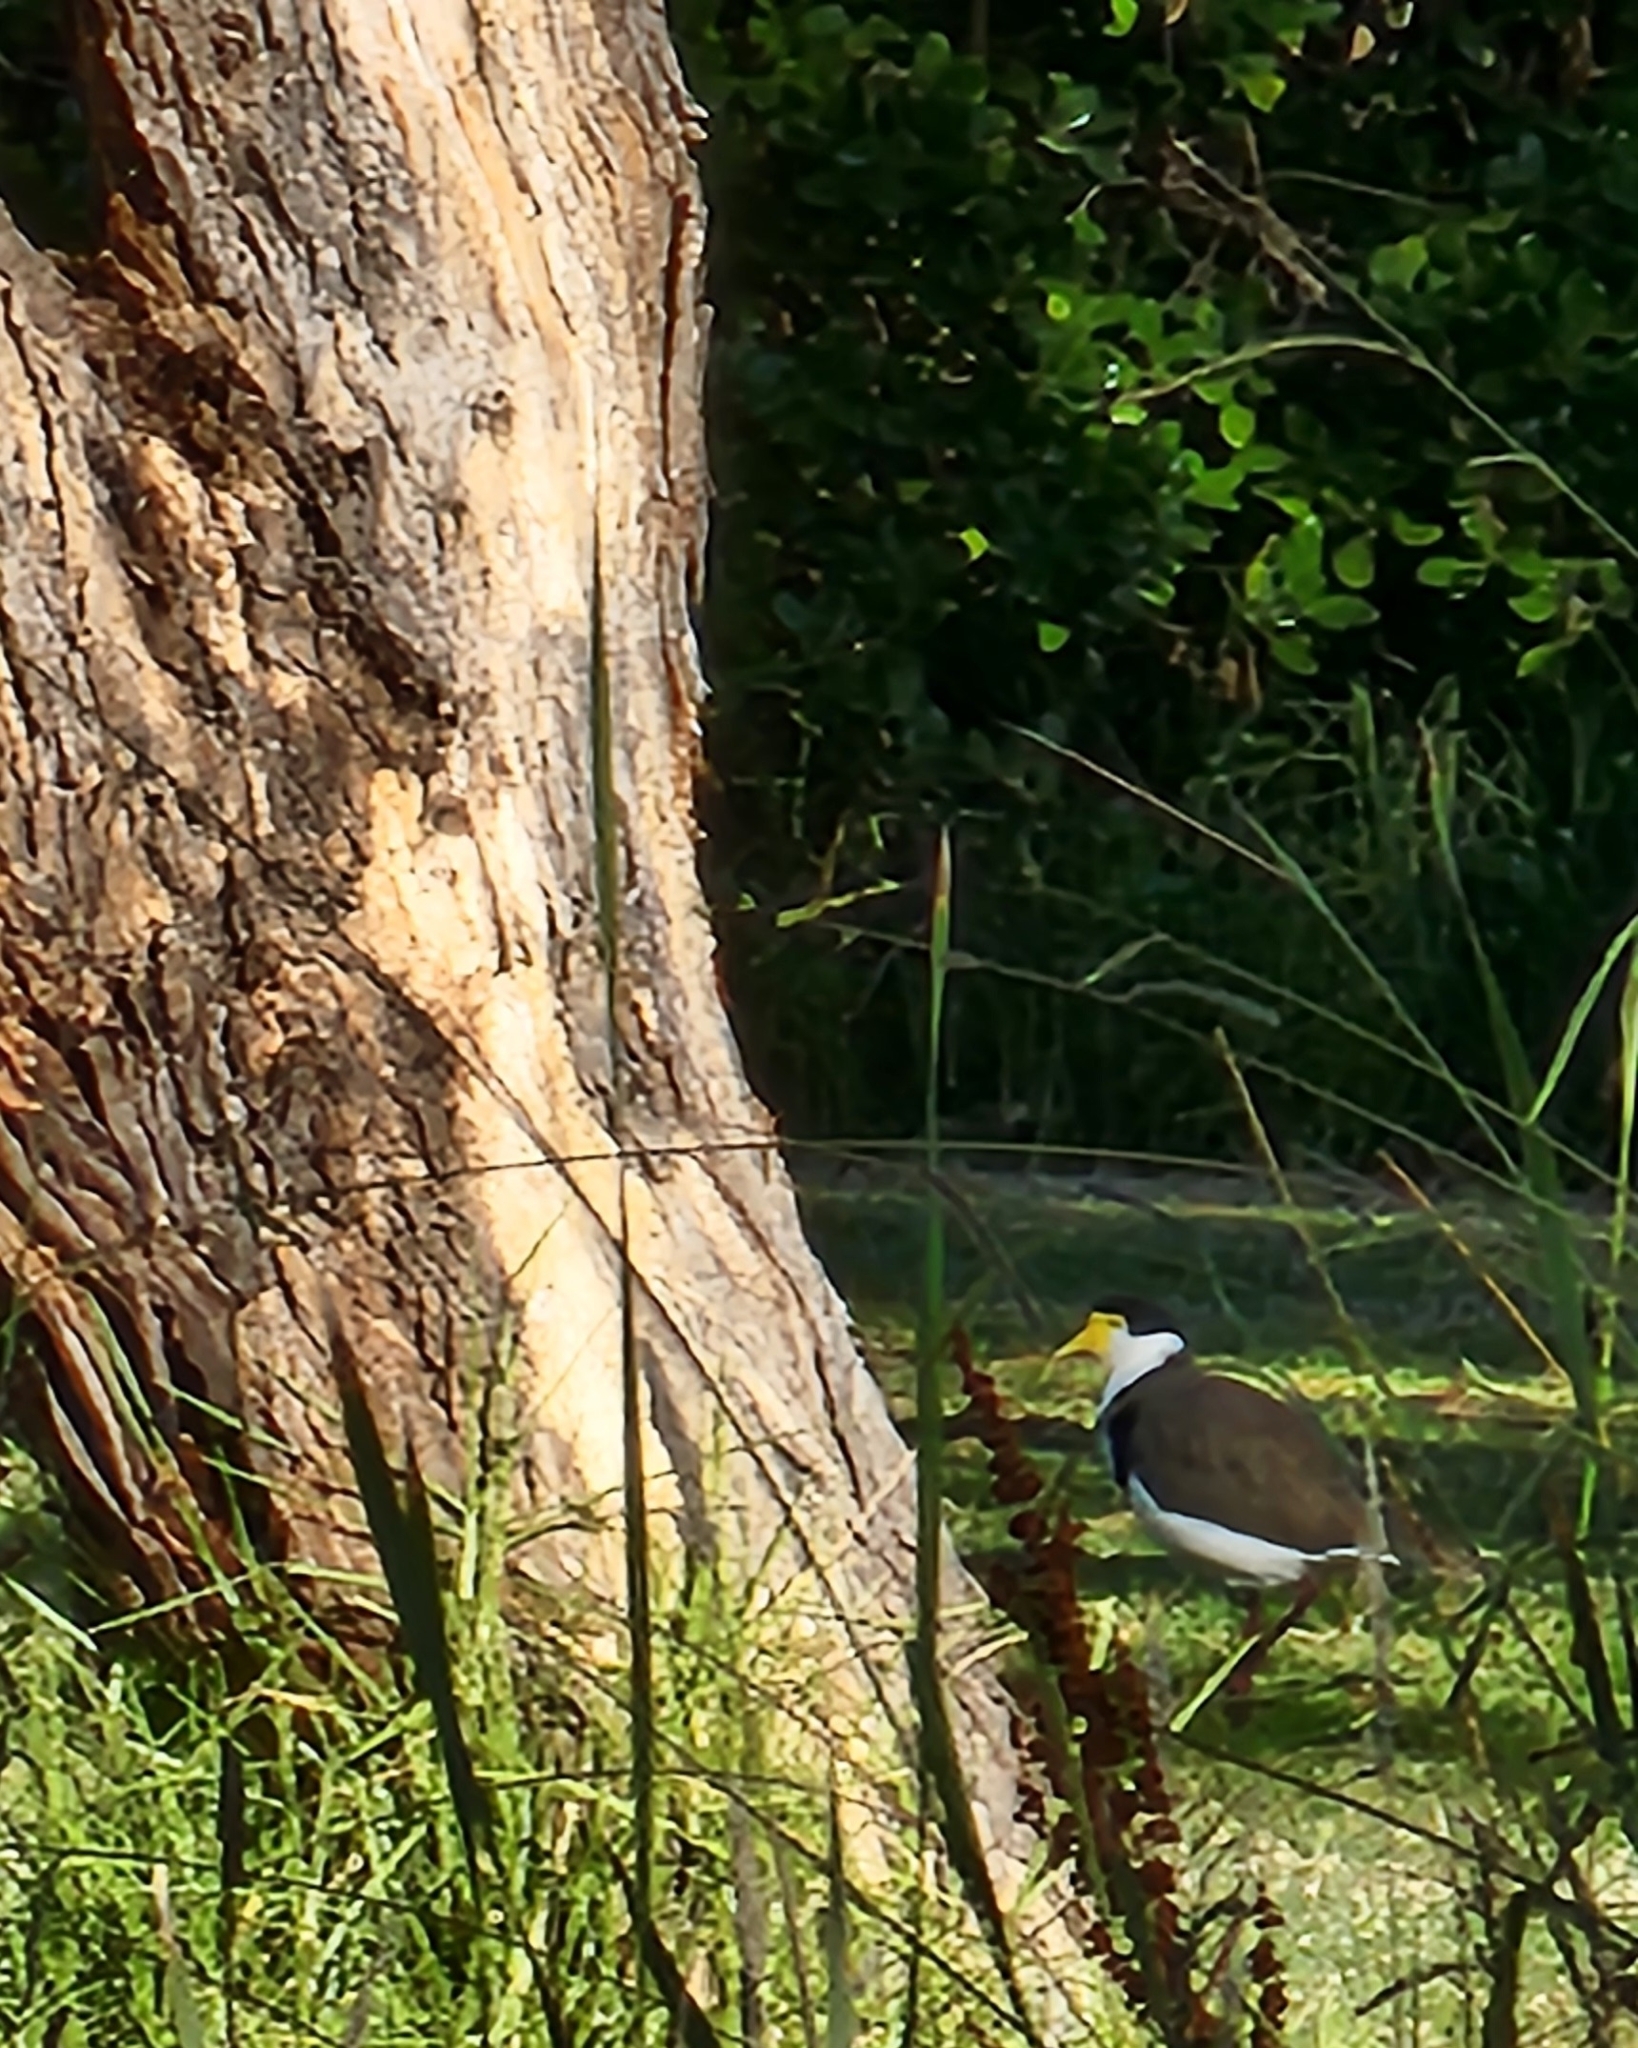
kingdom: Animalia
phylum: Chordata
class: Aves
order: Charadriiformes
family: Charadriidae
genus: Vanellus
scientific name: Vanellus miles
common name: Masked lapwing
